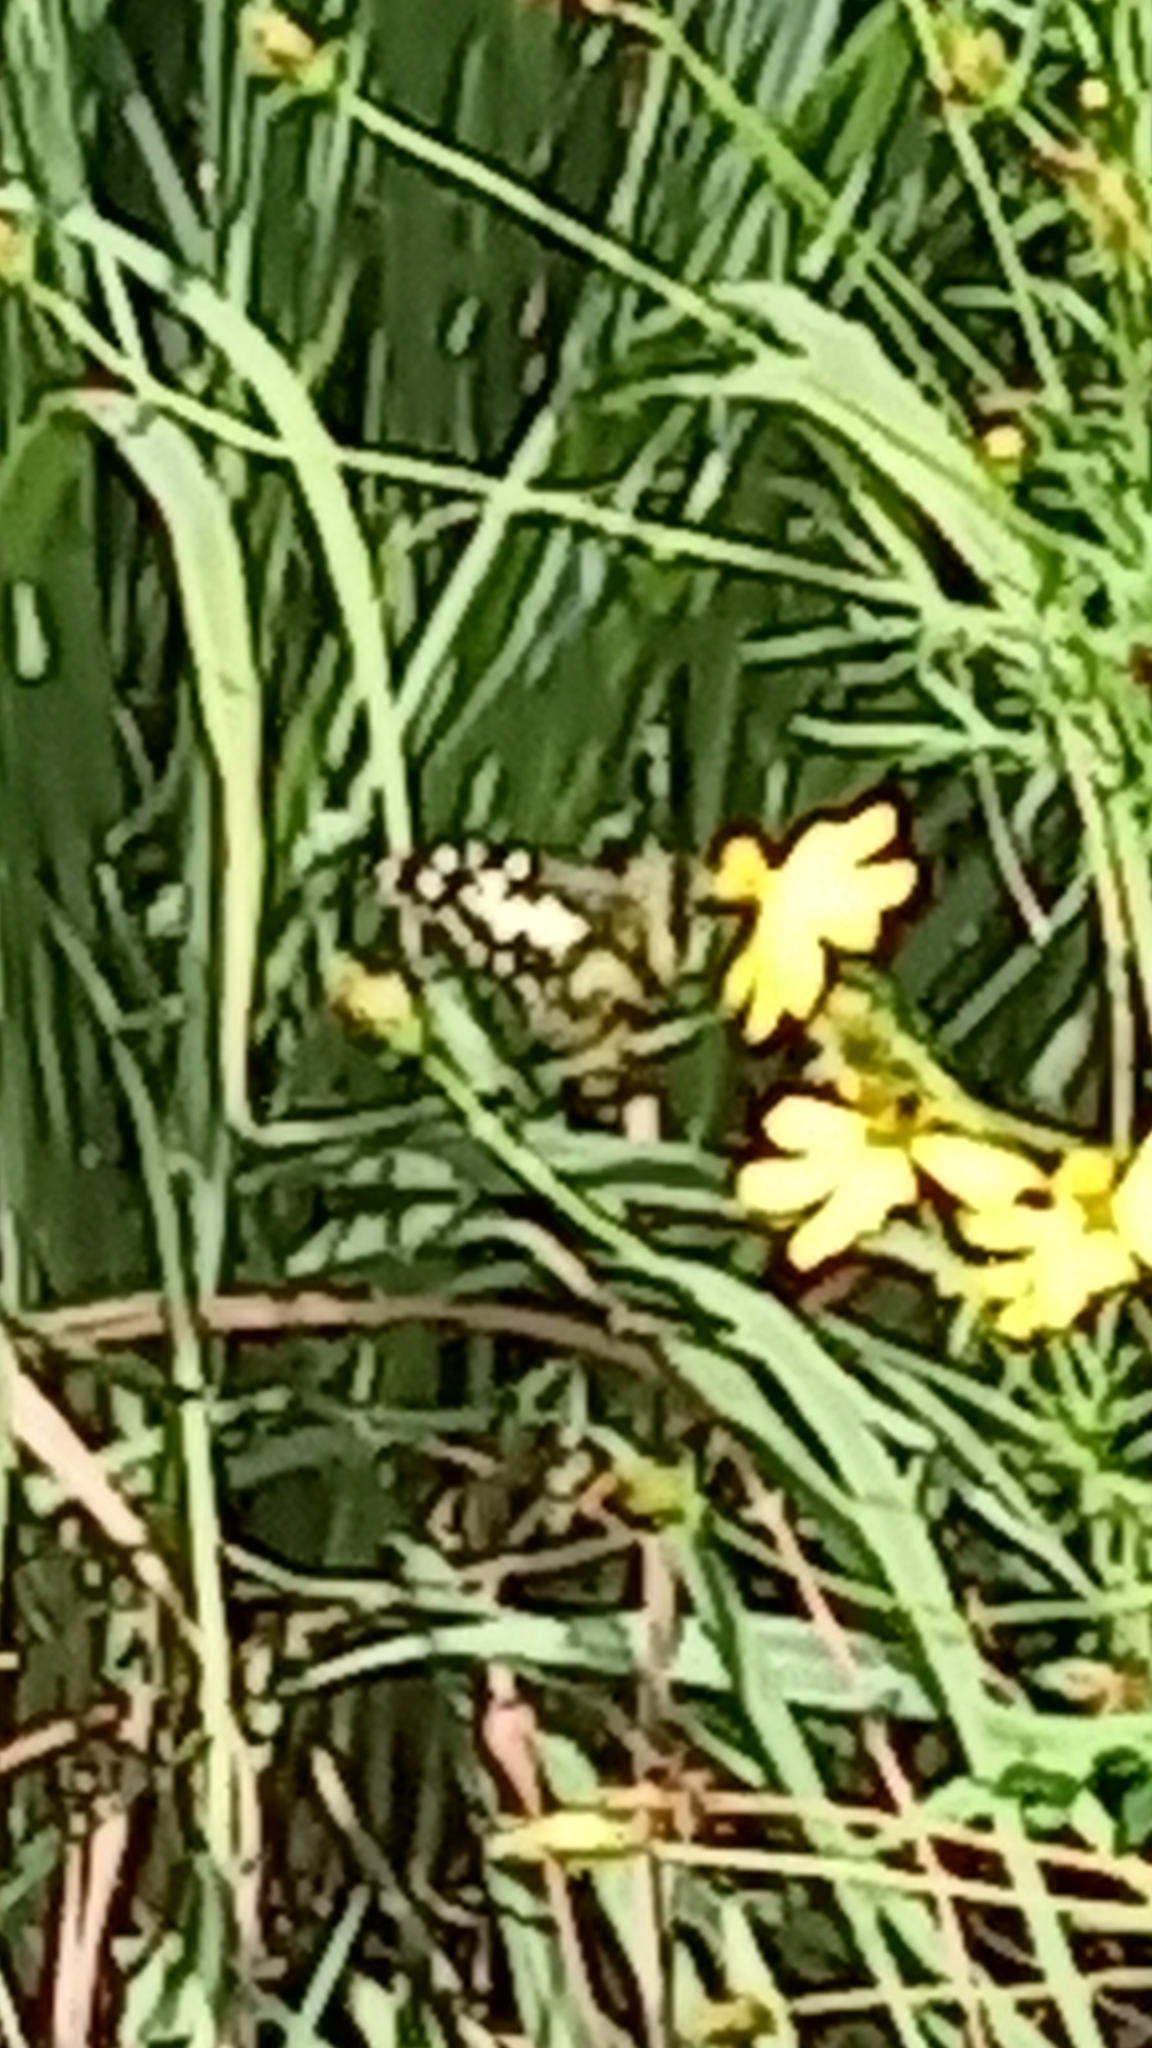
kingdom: Animalia
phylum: Arthropoda
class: Insecta
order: Lepidoptera
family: Papilionidae
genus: Papilio
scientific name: Papilio demoleus
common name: Lime butterfly
